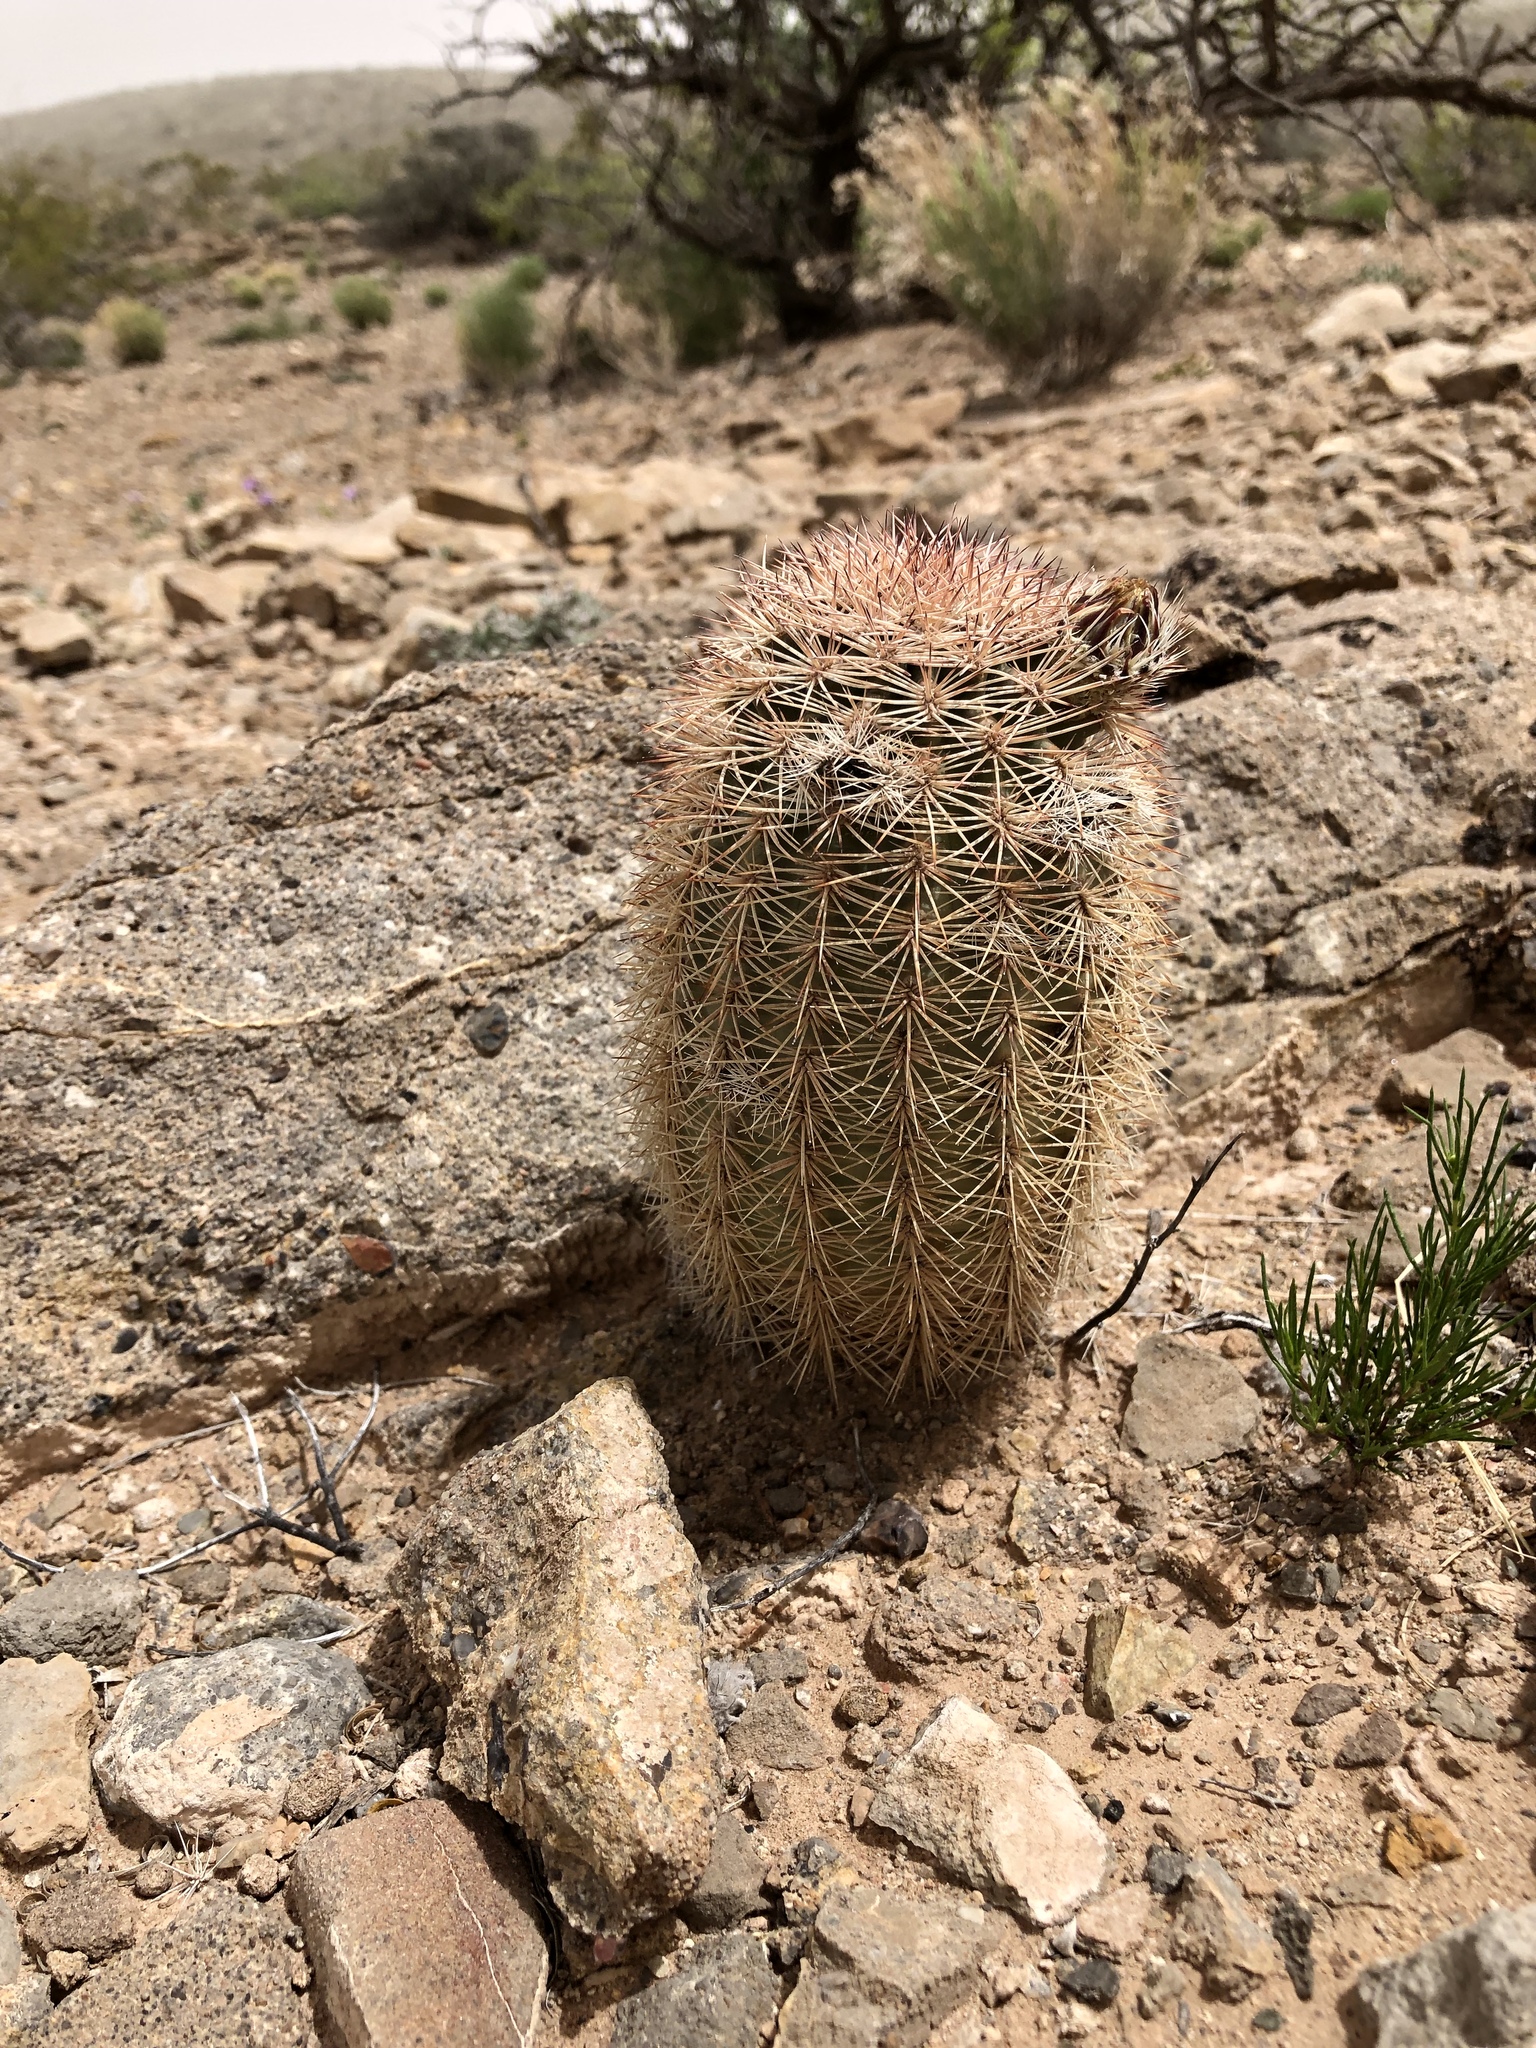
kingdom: Plantae
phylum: Tracheophyta
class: Magnoliopsida
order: Caryophyllales
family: Cactaceae
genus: Echinocereus
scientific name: Echinocereus dasyacanthus
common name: Spiny hedgehog cactus
